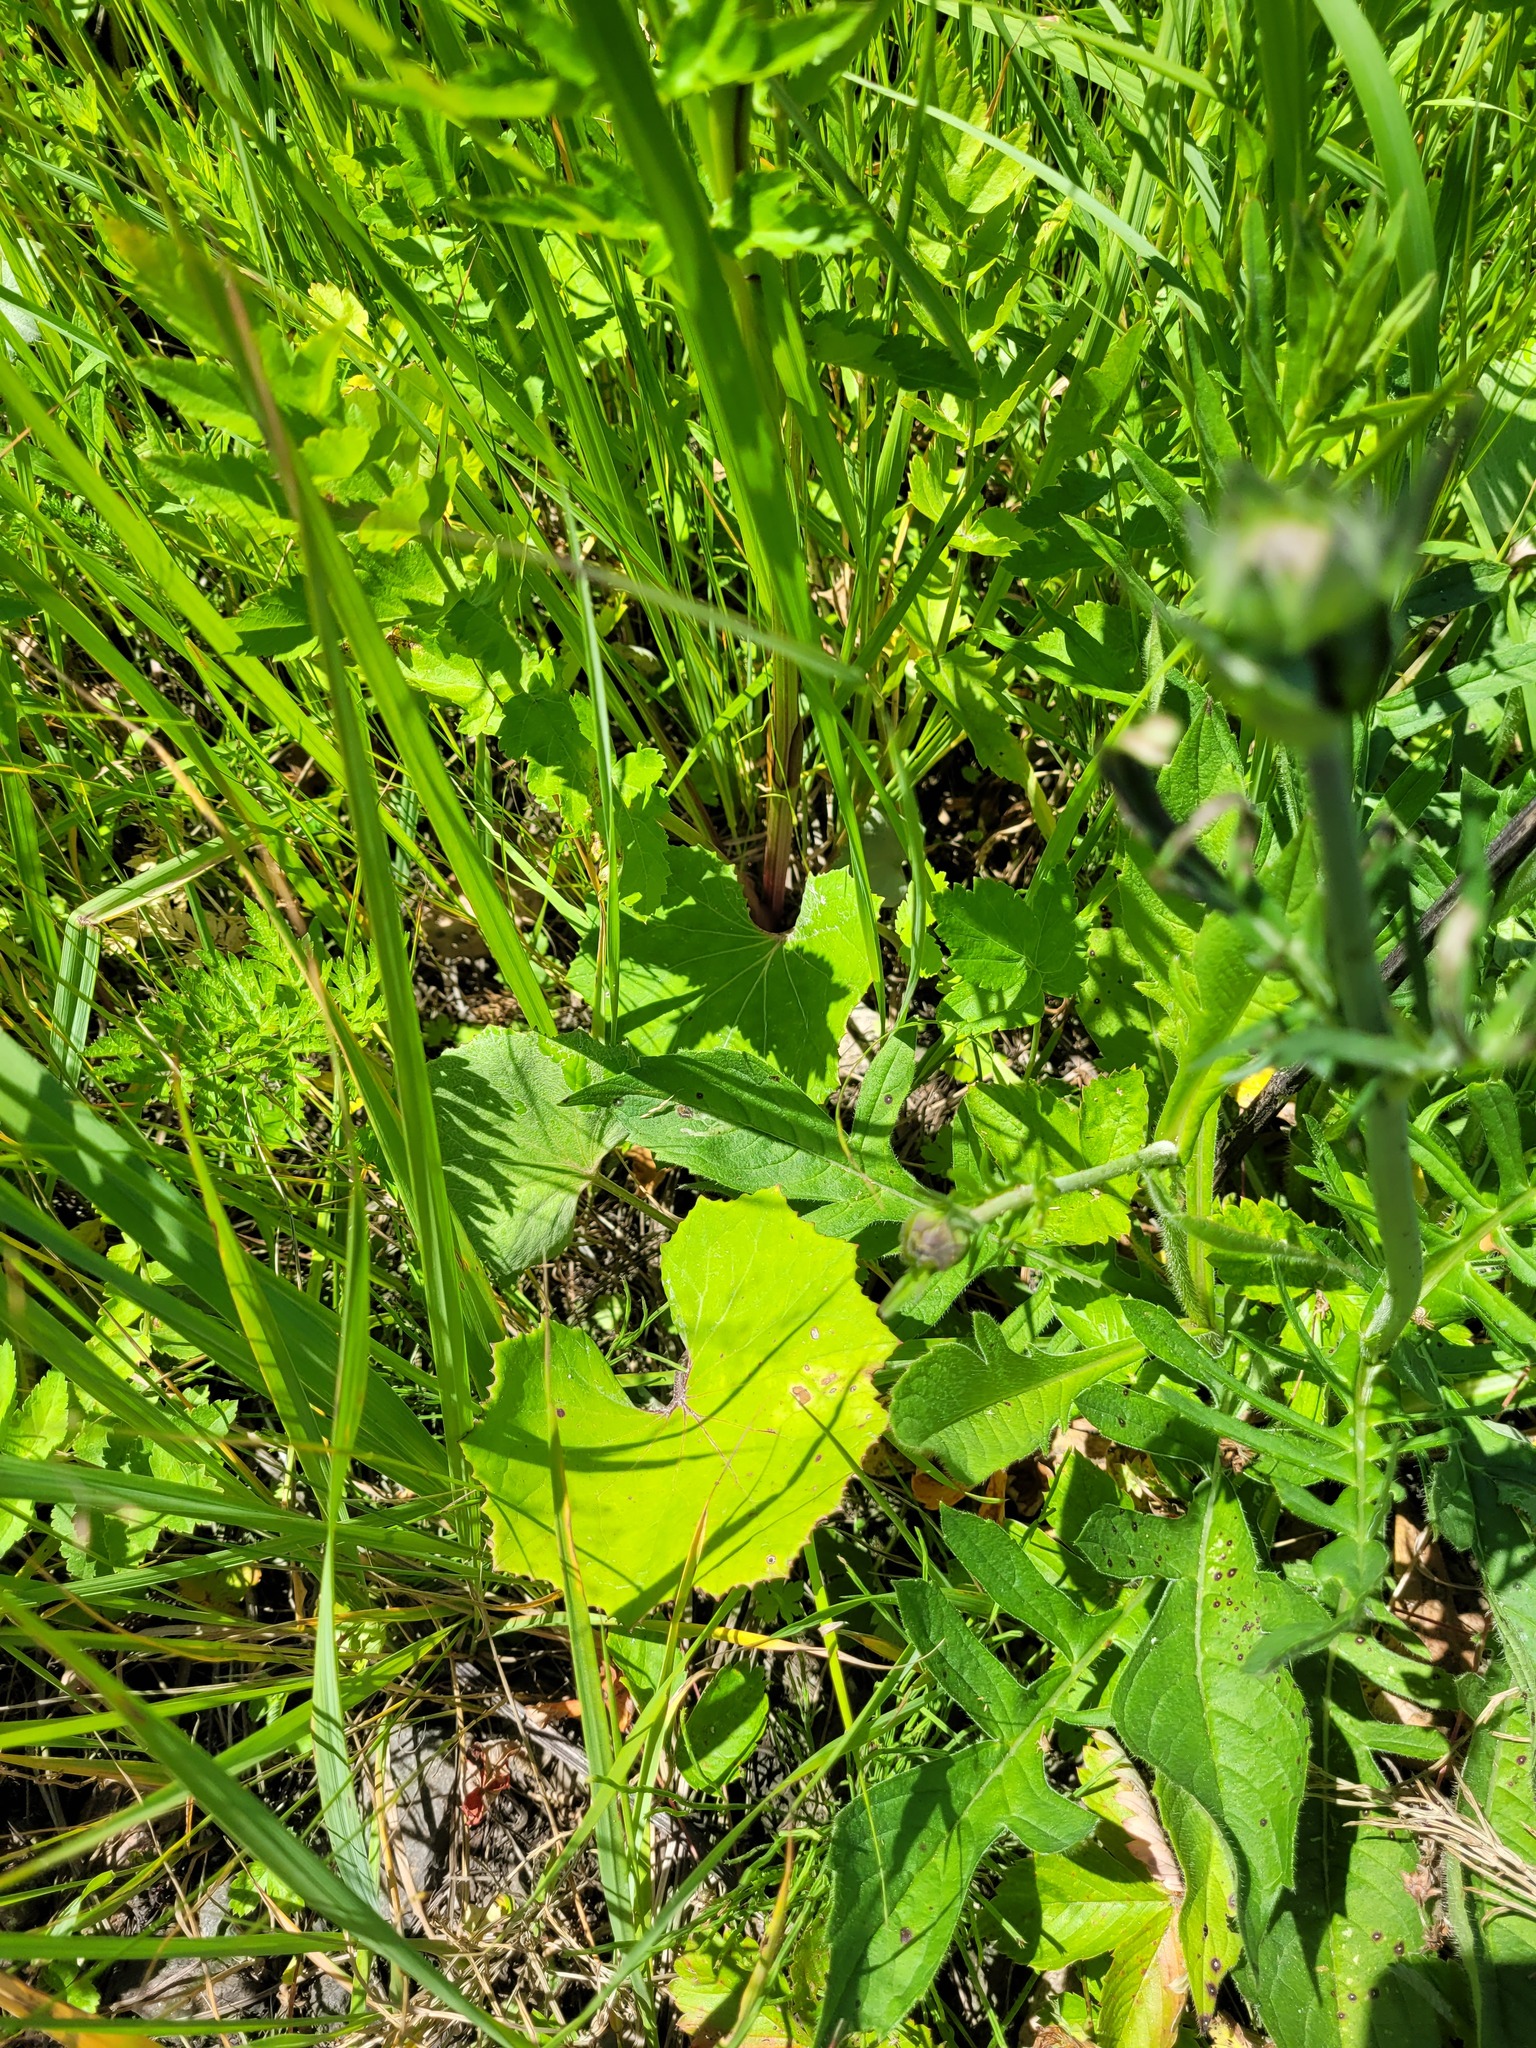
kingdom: Plantae
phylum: Tracheophyta
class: Magnoliopsida
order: Asterales
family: Asteraceae
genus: Tussilago
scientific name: Tussilago farfara
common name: Coltsfoot
